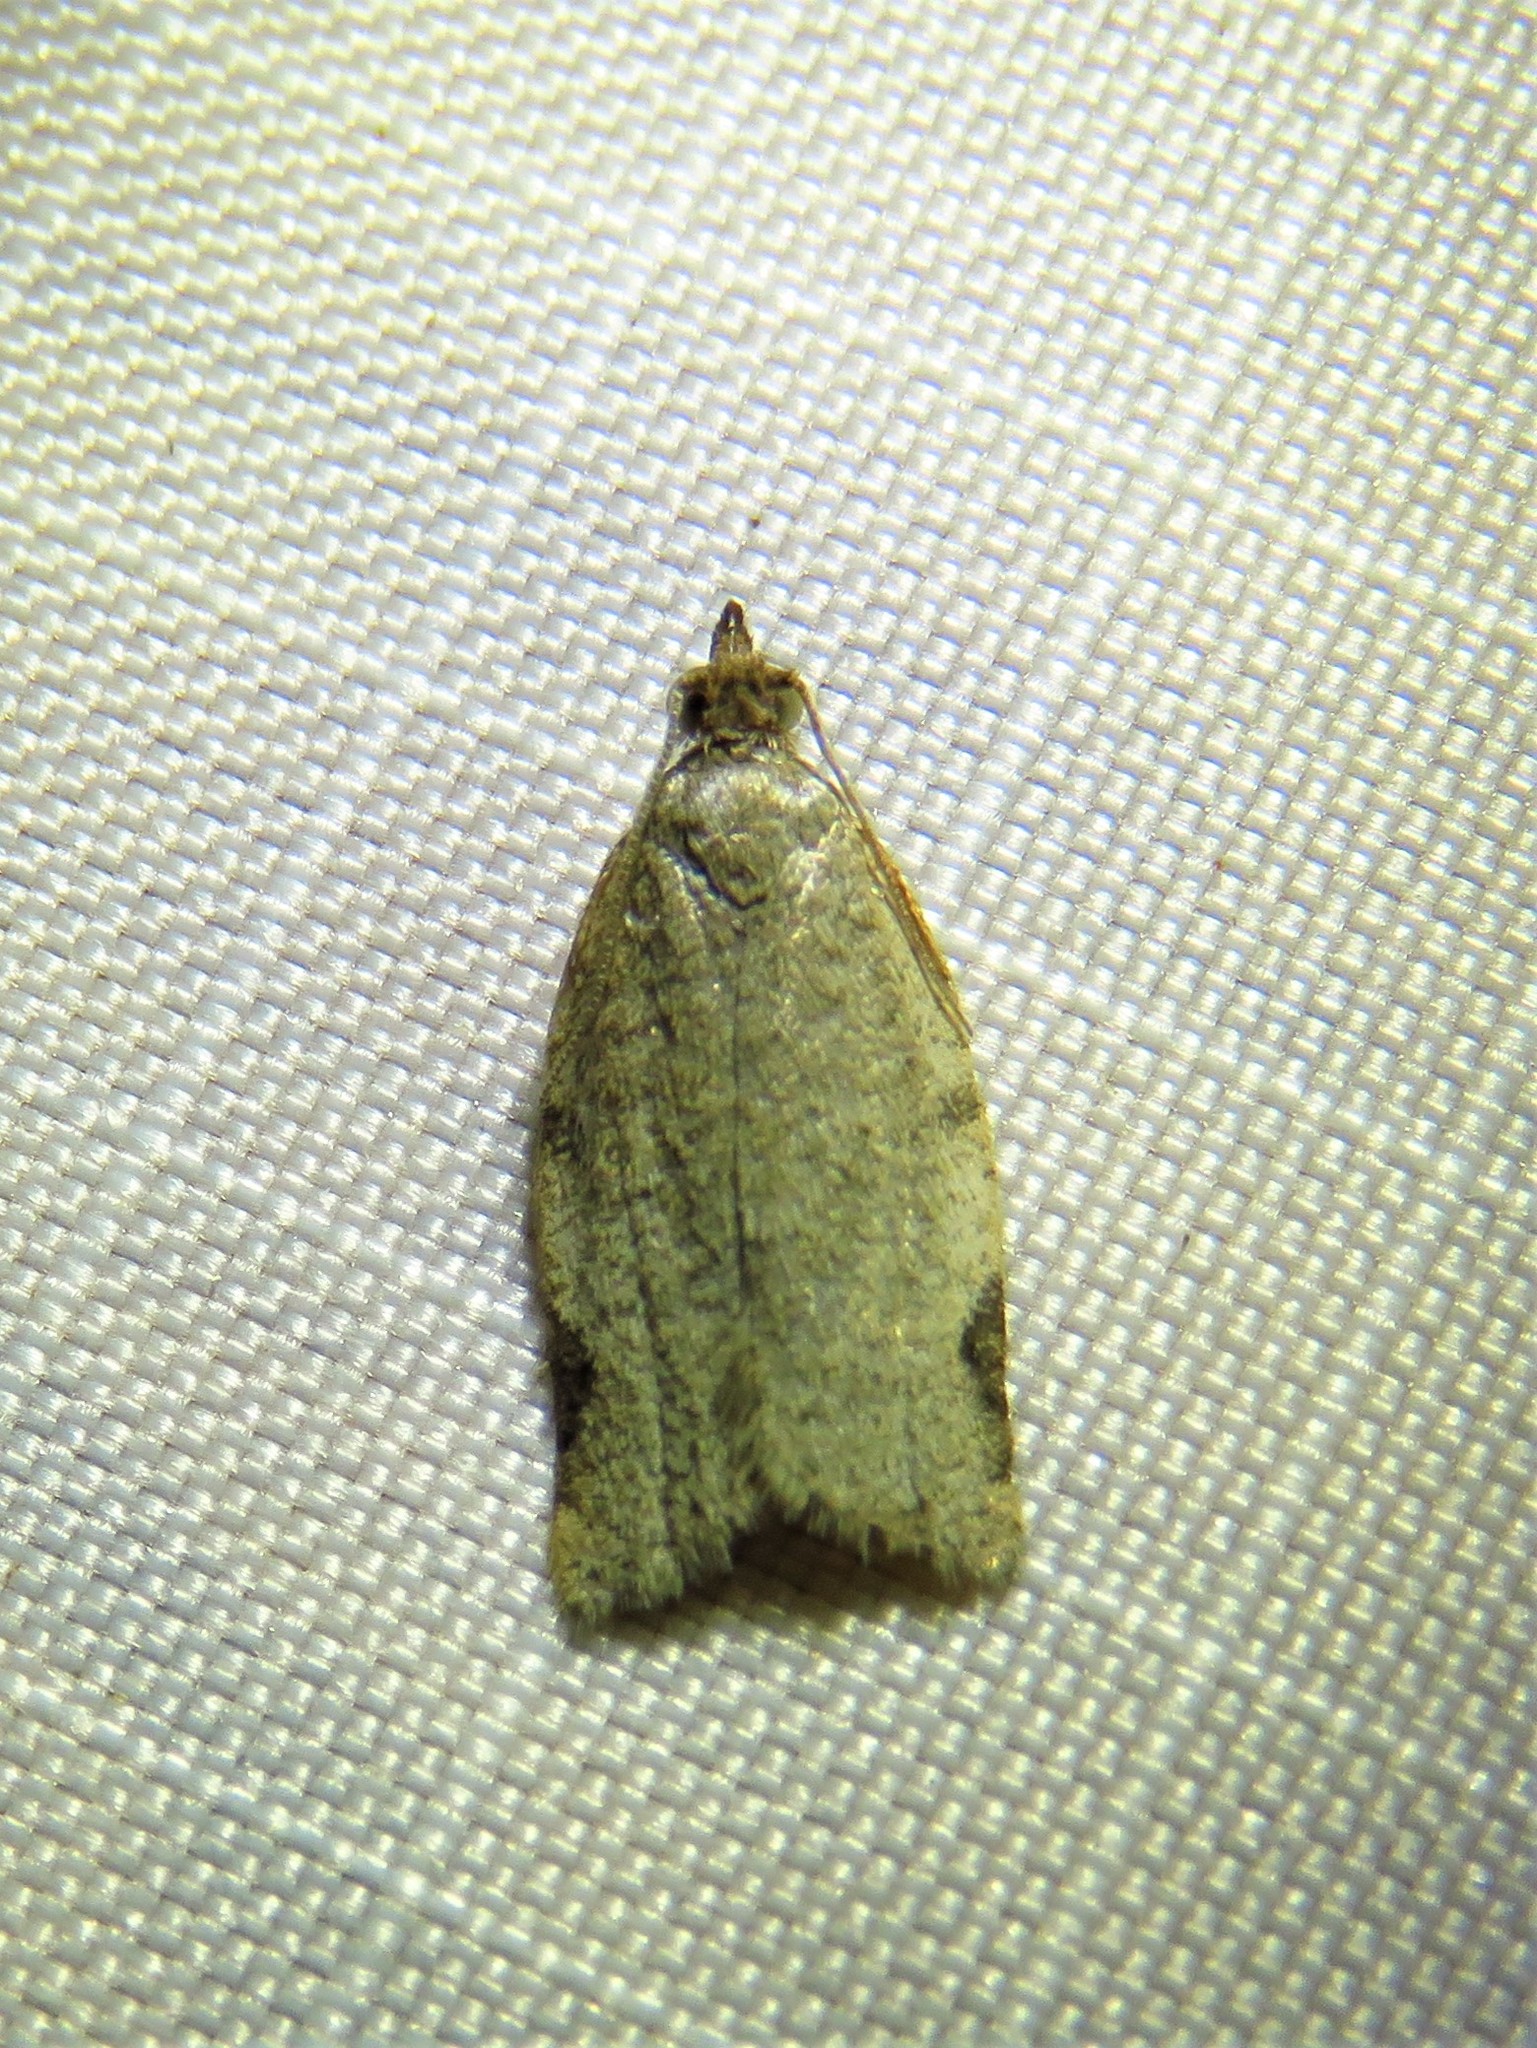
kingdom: Animalia
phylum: Arthropoda
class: Insecta
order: Lepidoptera
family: Tortricidae
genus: Clepsis
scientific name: Clepsis virescana
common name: Greenish apple moth
